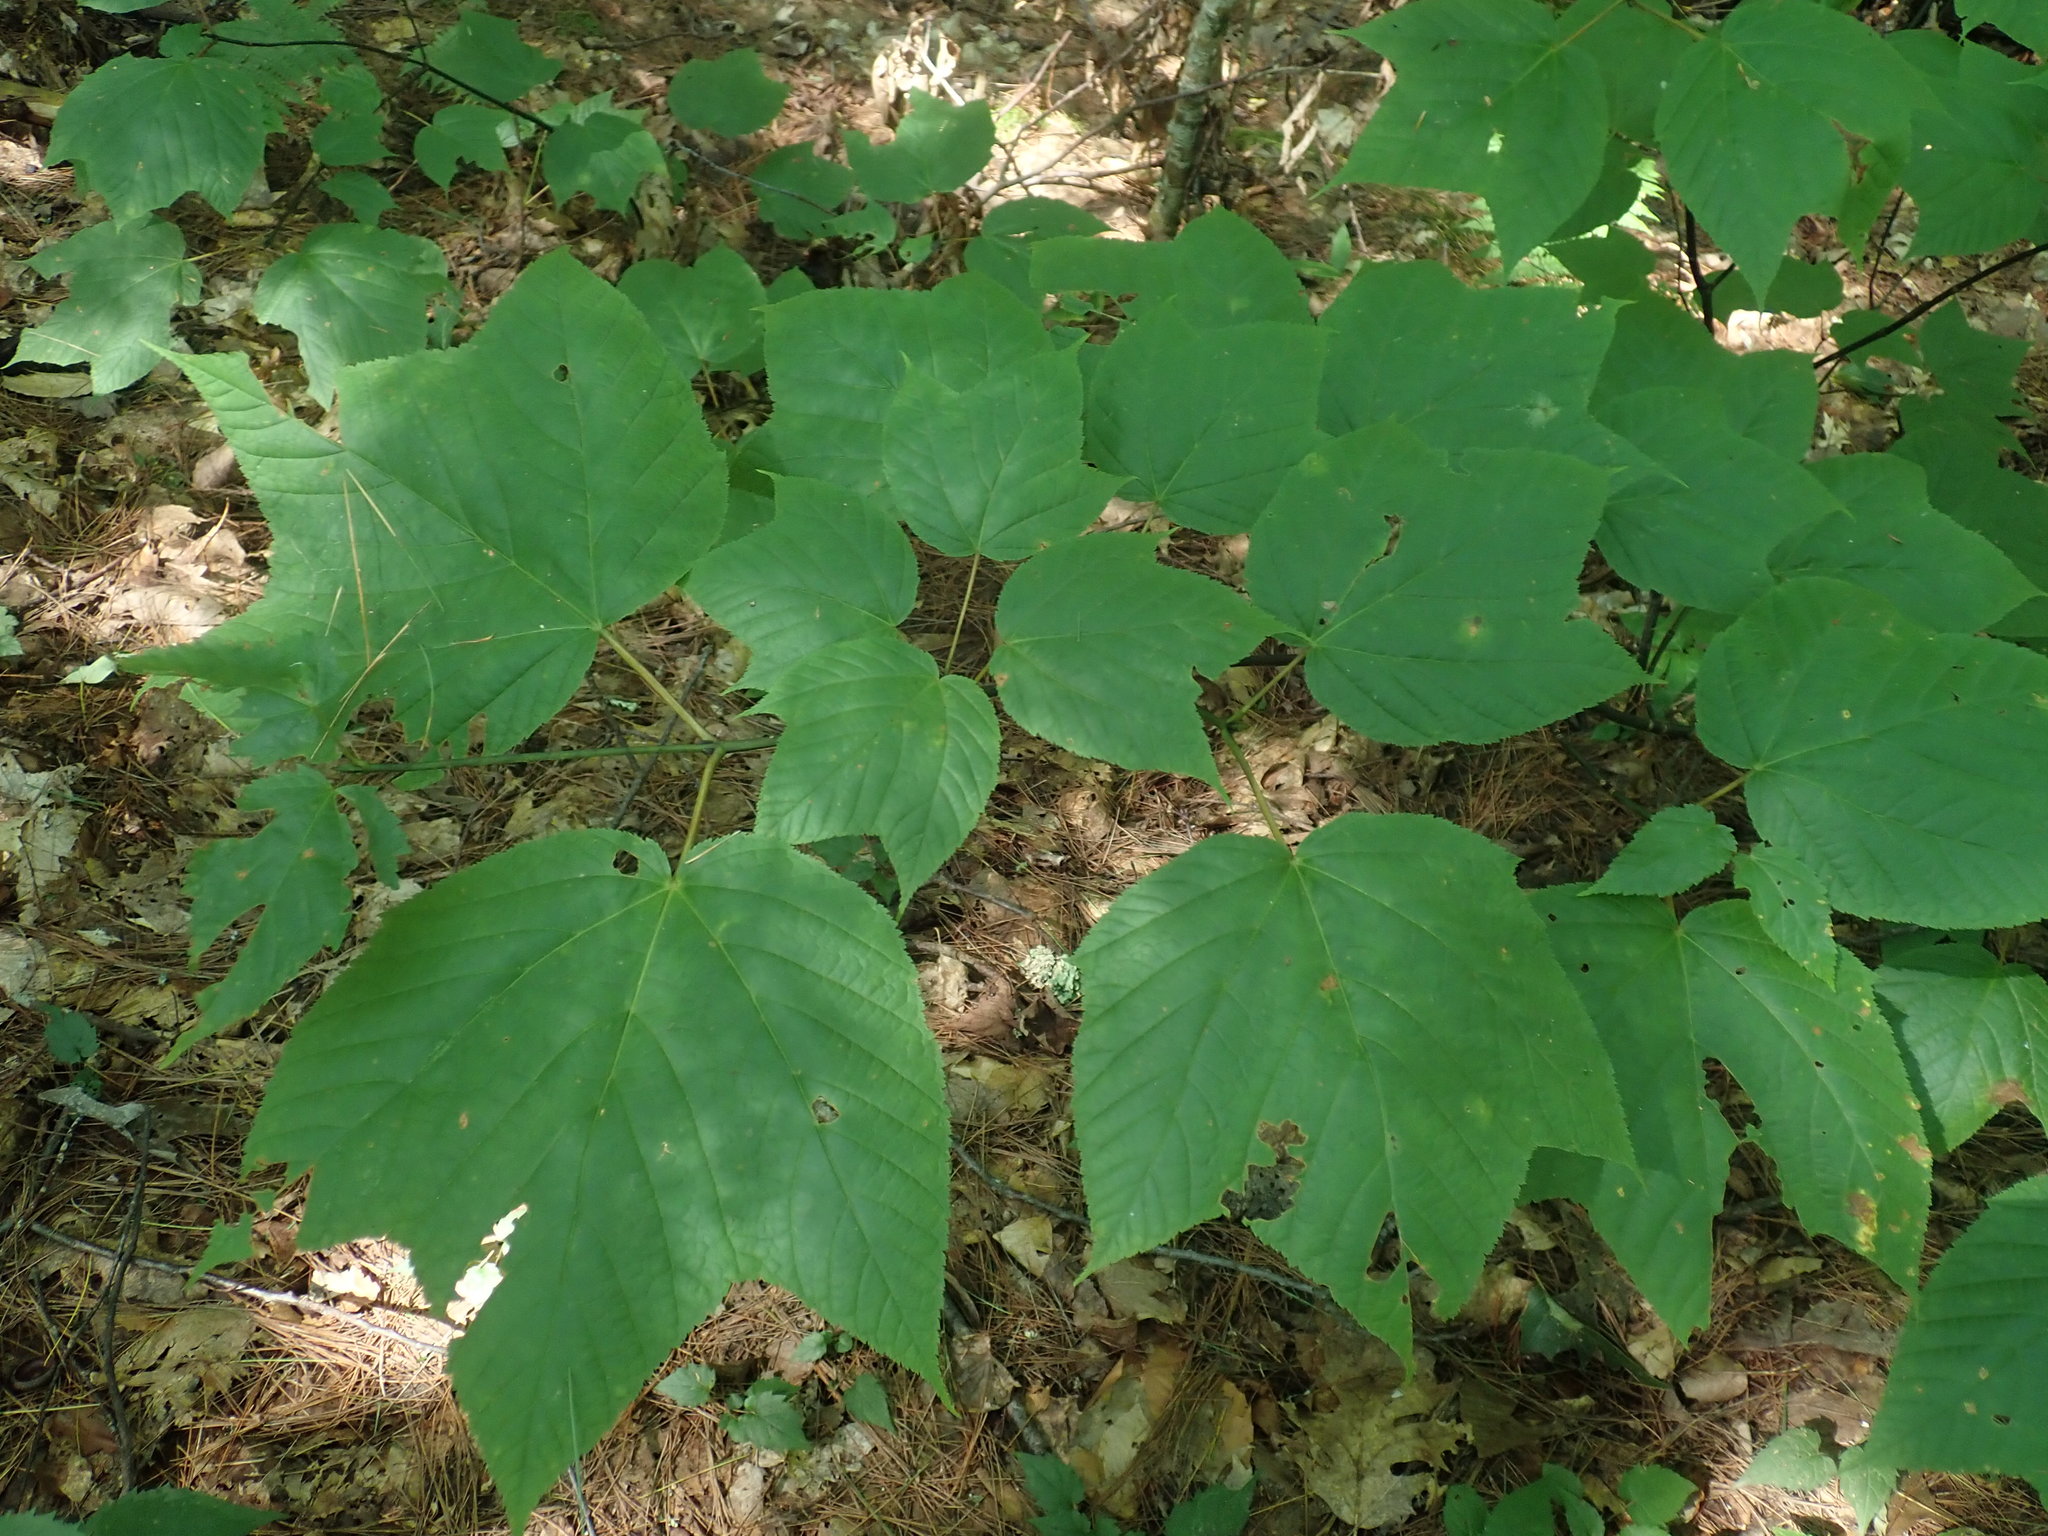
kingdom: Plantae
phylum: Tracheophyta
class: Magnoliopsida
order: Sapindales
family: Sapindaceae
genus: Acer
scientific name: Acer pensylvanicum
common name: Moosewood
